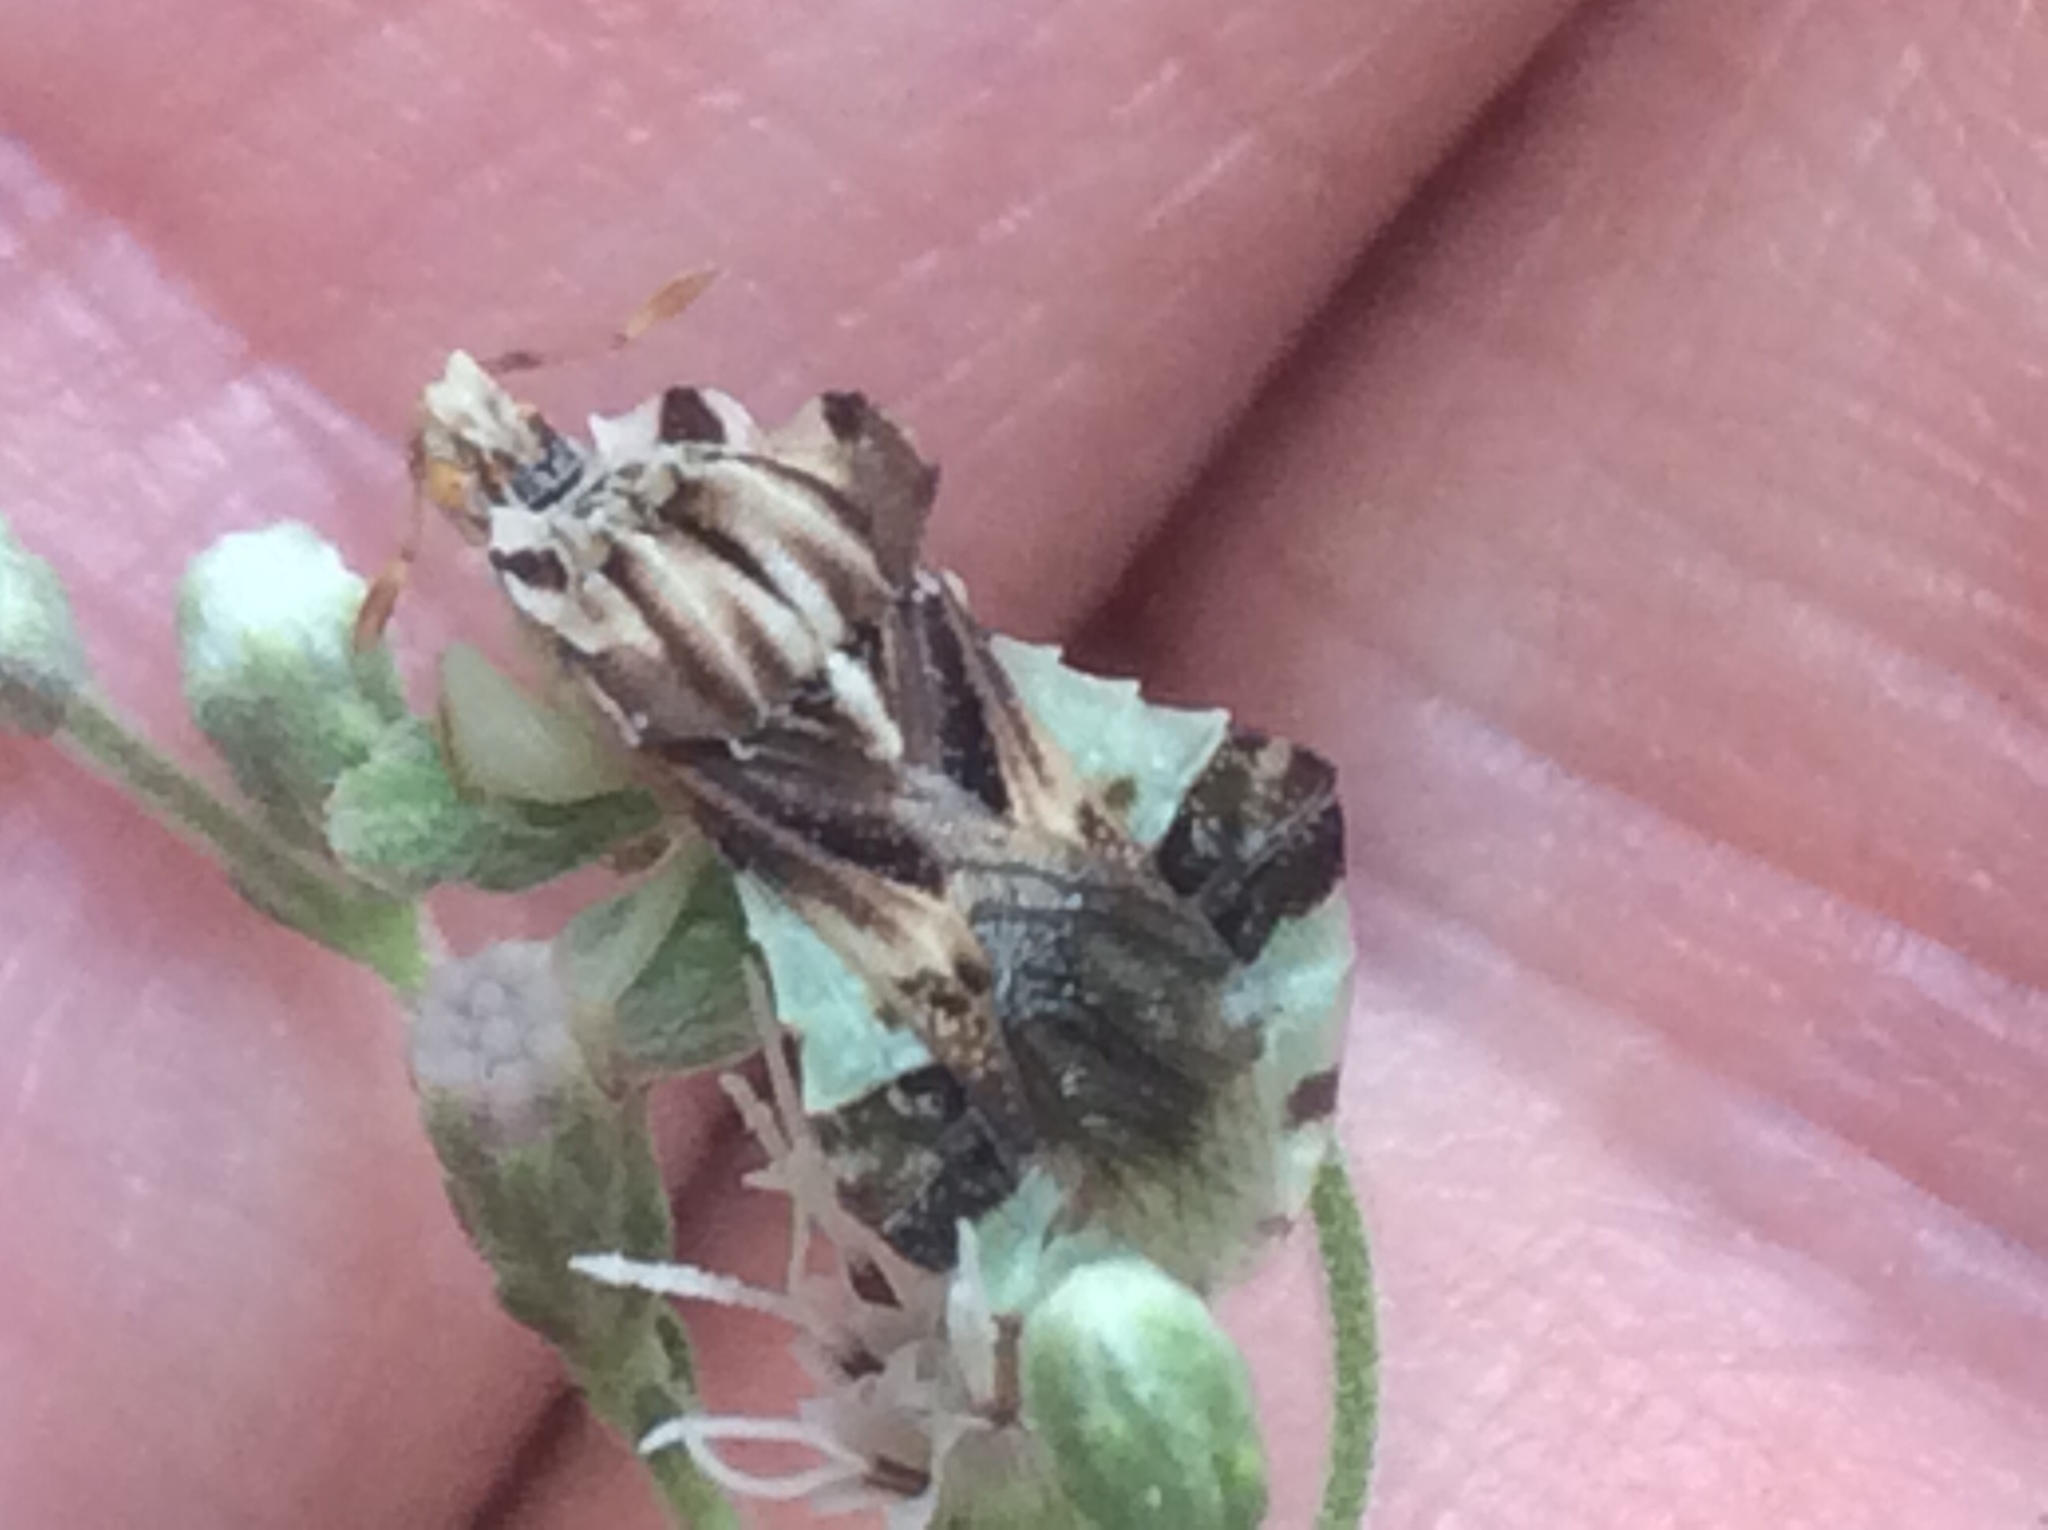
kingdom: Animalia
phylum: Arthropoda
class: Insecta
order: Hemiptera
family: Reduviidae
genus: Phymata
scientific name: Phymata fasciata
